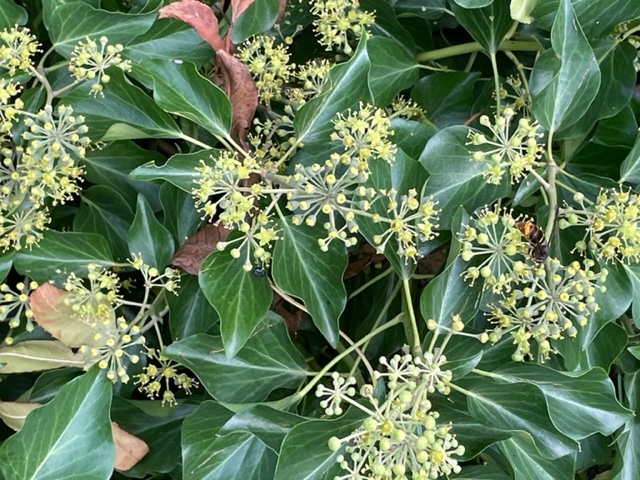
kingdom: Animalia
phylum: Arthropoda
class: Insecta
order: Hymenoptera
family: Vespidae
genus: Vespa
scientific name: Vespa velutina
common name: Asian hornet
